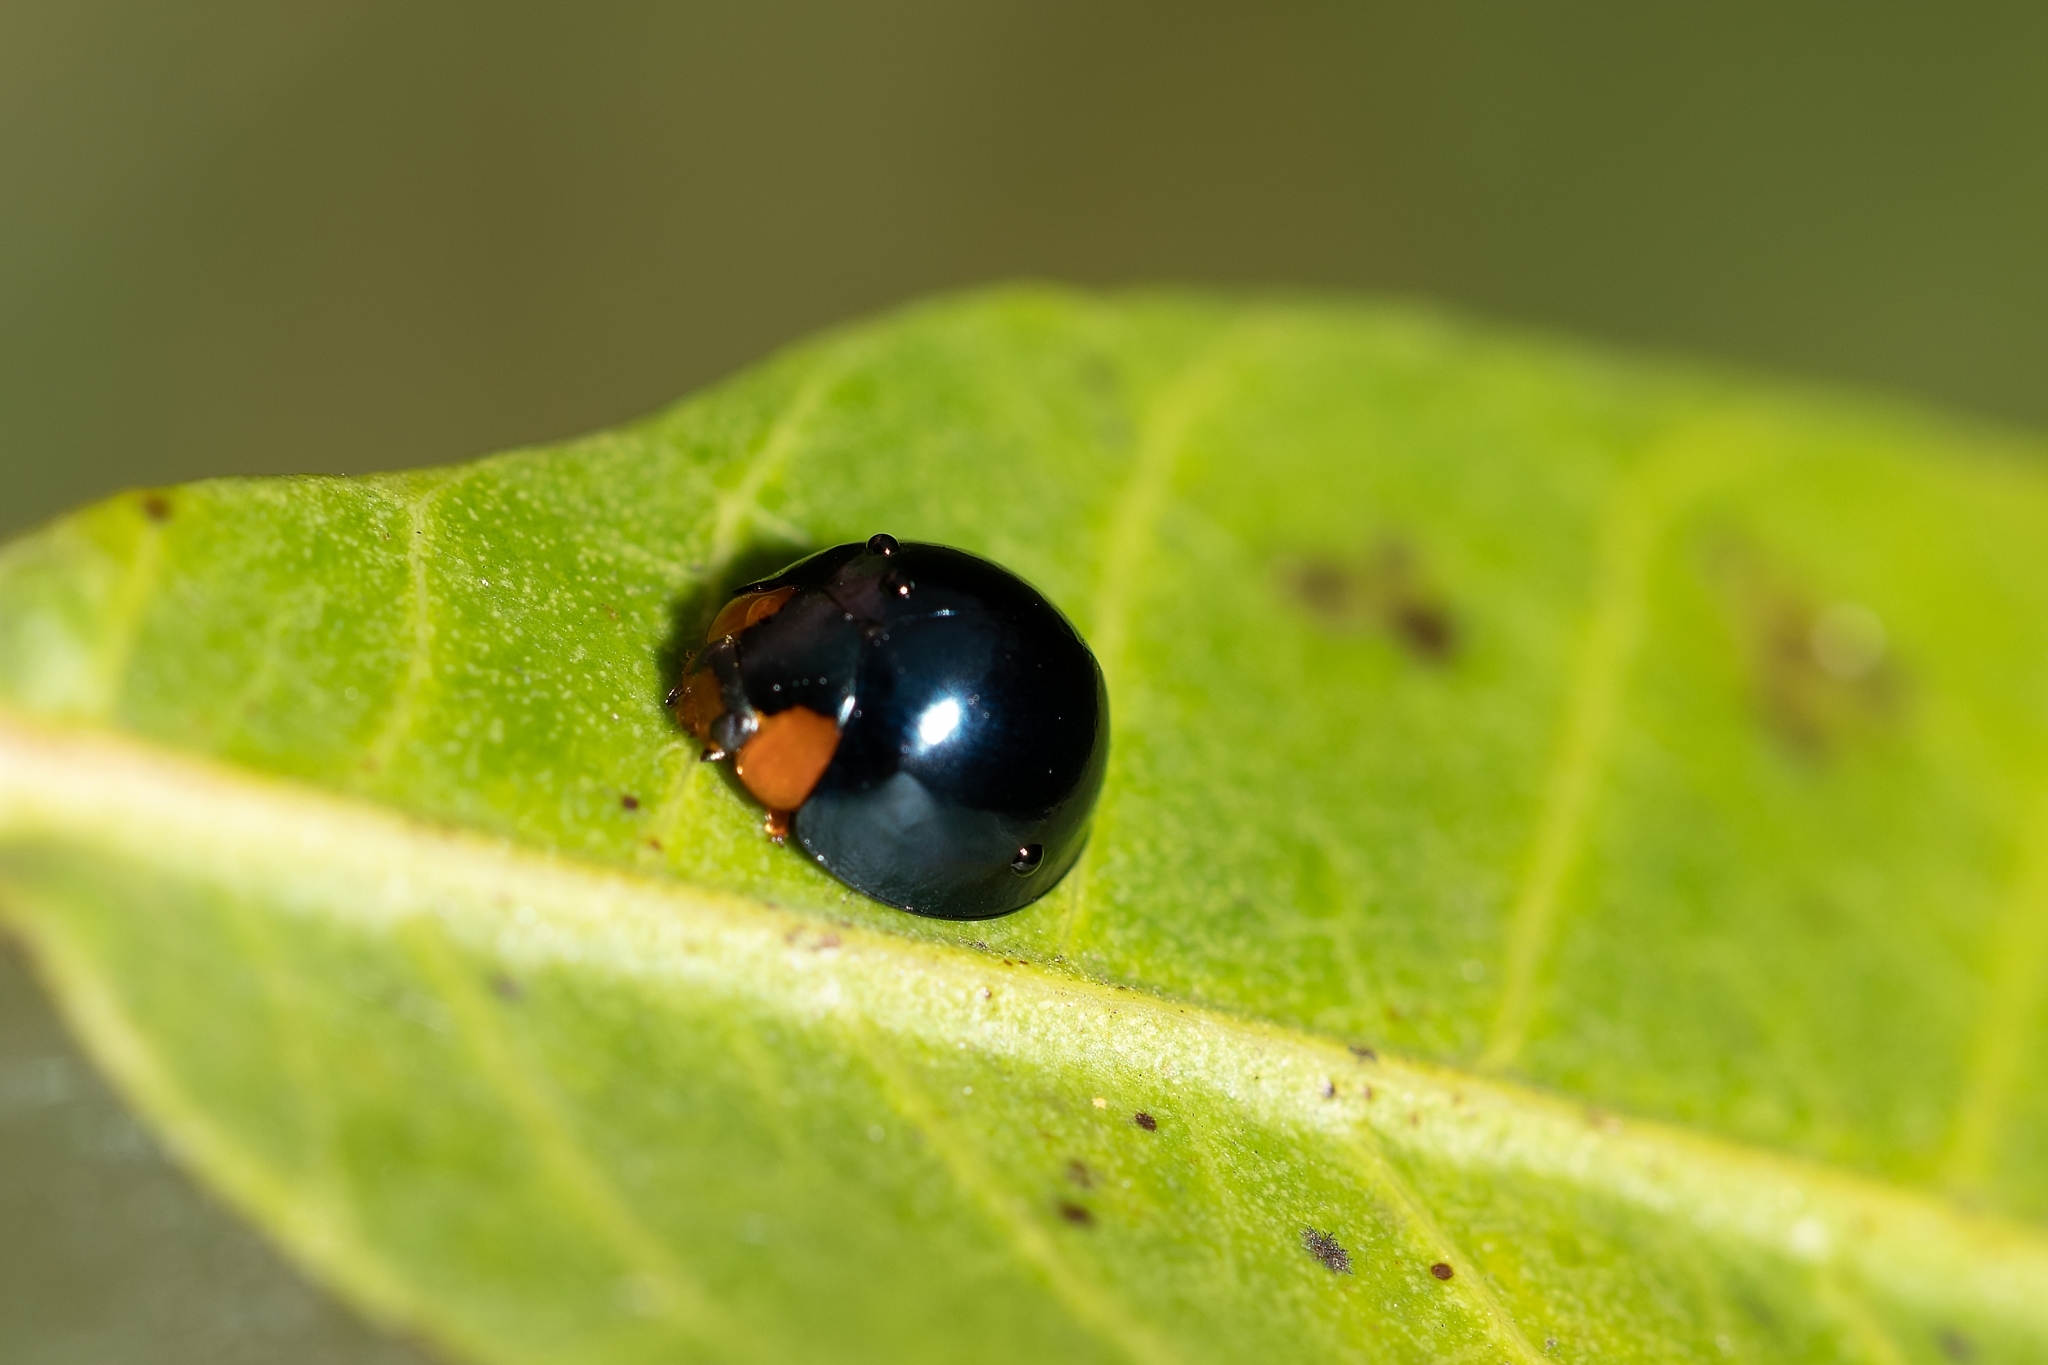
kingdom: Animalia
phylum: Arthropoda
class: Insecta
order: Coleoptera
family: Coccinellidae
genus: Curinus
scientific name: Curinus coeruleus
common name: Ladybird beetle
